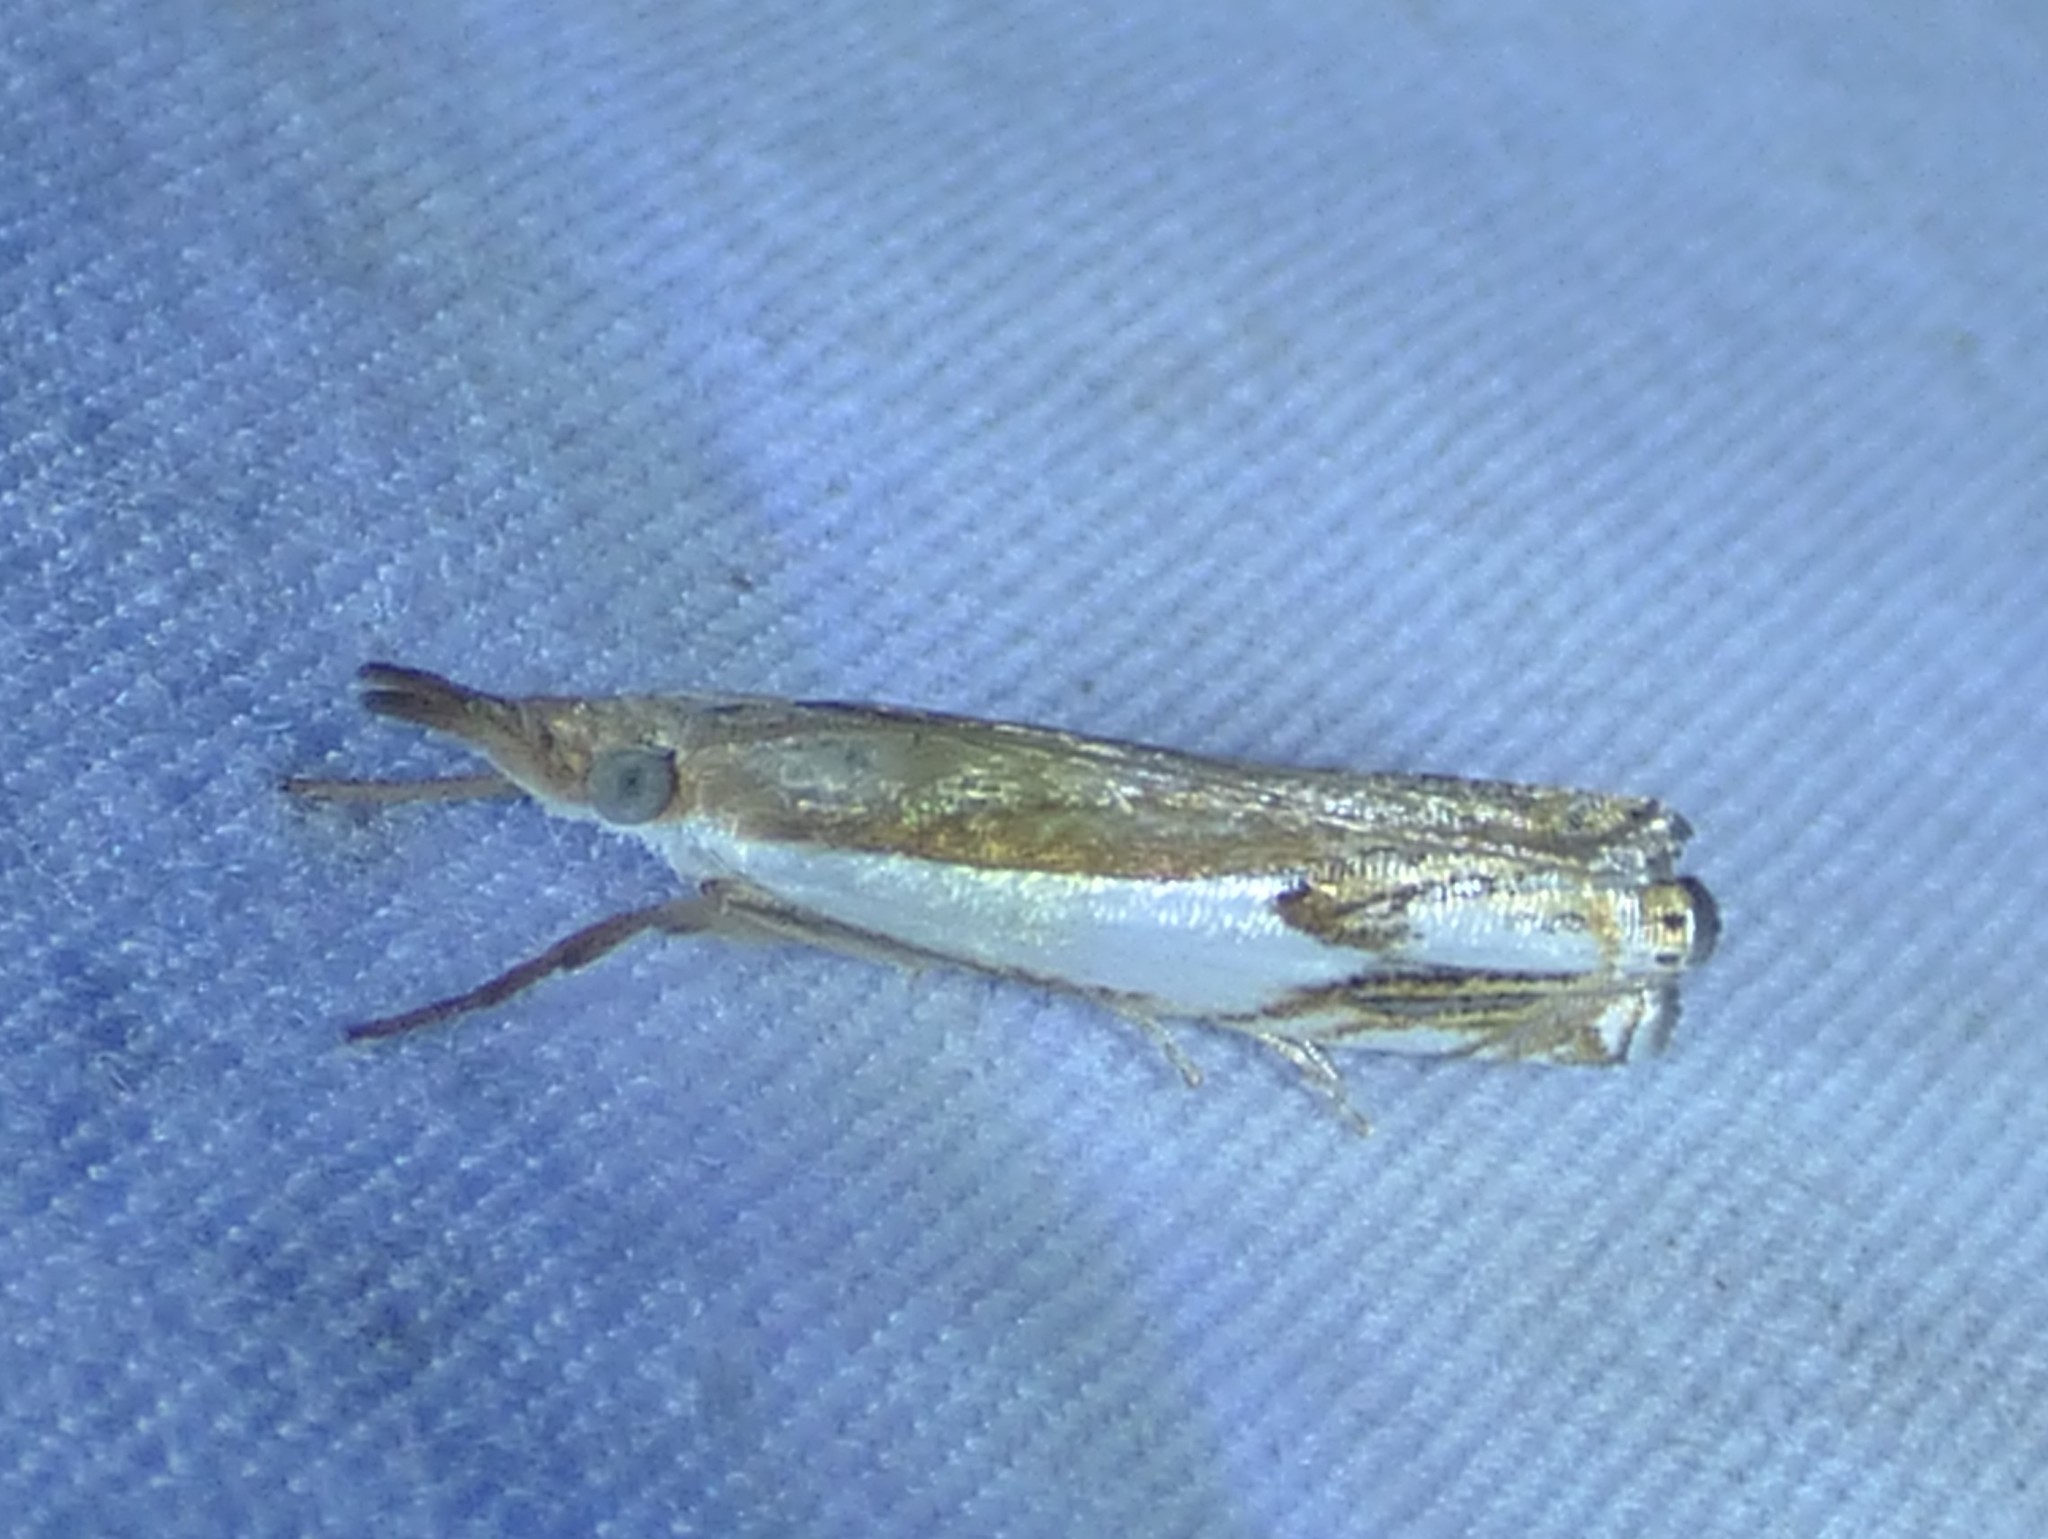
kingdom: Animalia
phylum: Arthropoda
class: Insecta
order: Lepidoptera
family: Crambidae
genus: Crambus
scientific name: Crambus agitatellus
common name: Double-banded grass-veneer
